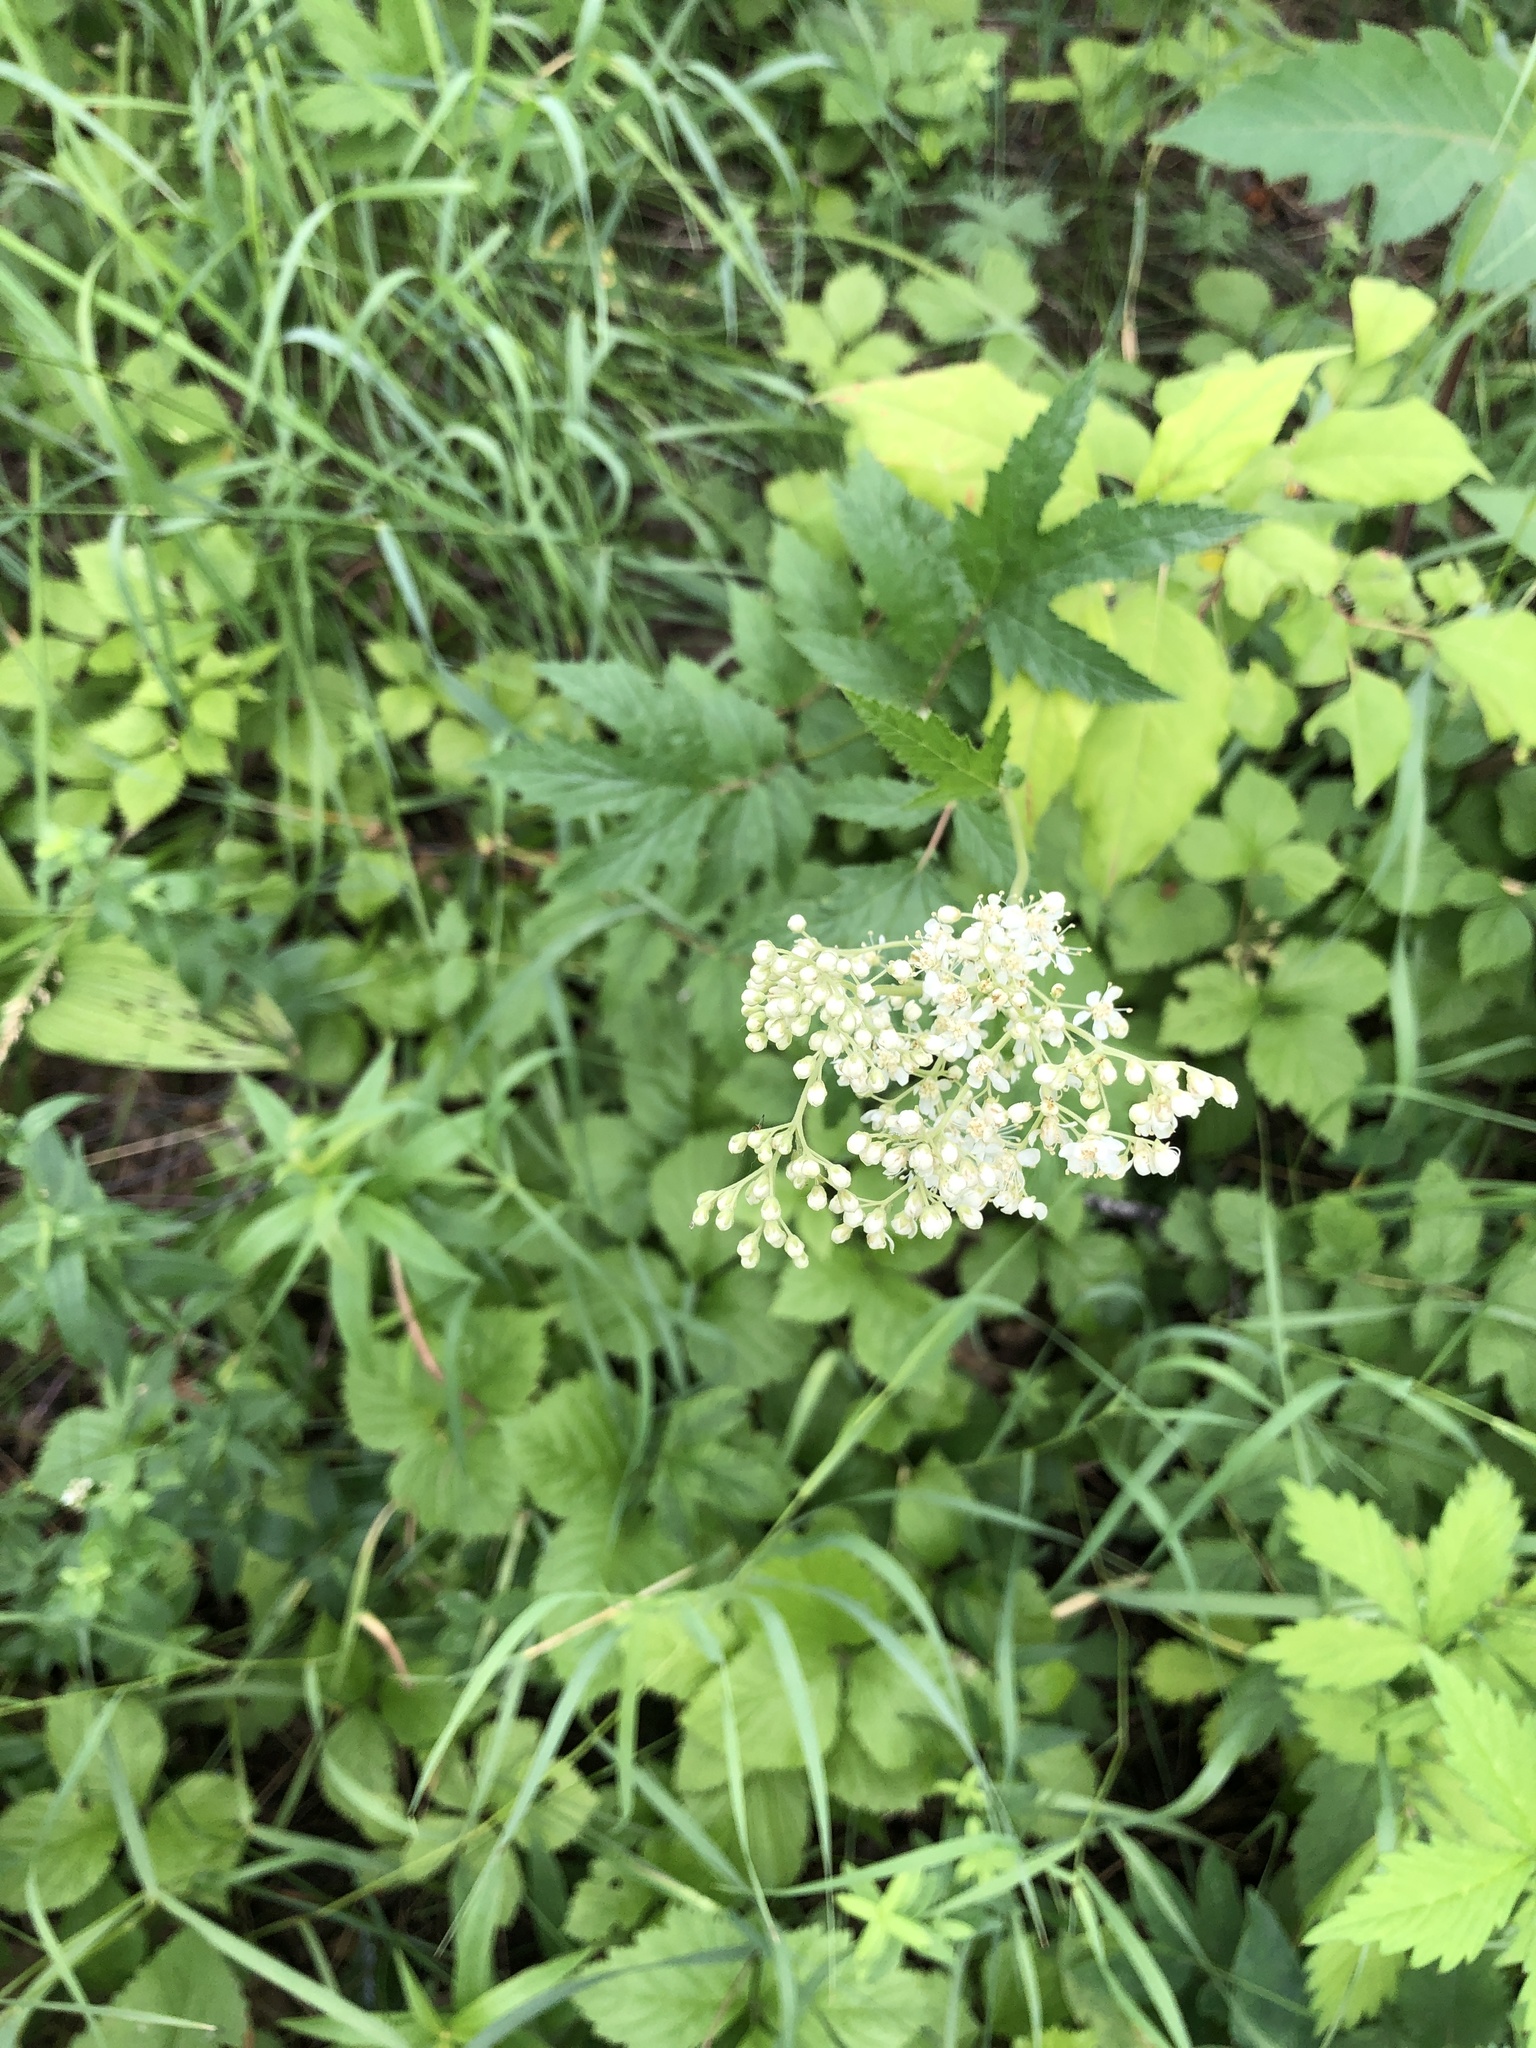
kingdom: Plantae
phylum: Tracheophyta
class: Magnoliopsida
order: Rosales
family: Rosaceae
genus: Filipendula
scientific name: Filipendula ulmaria
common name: Meadowsweet
